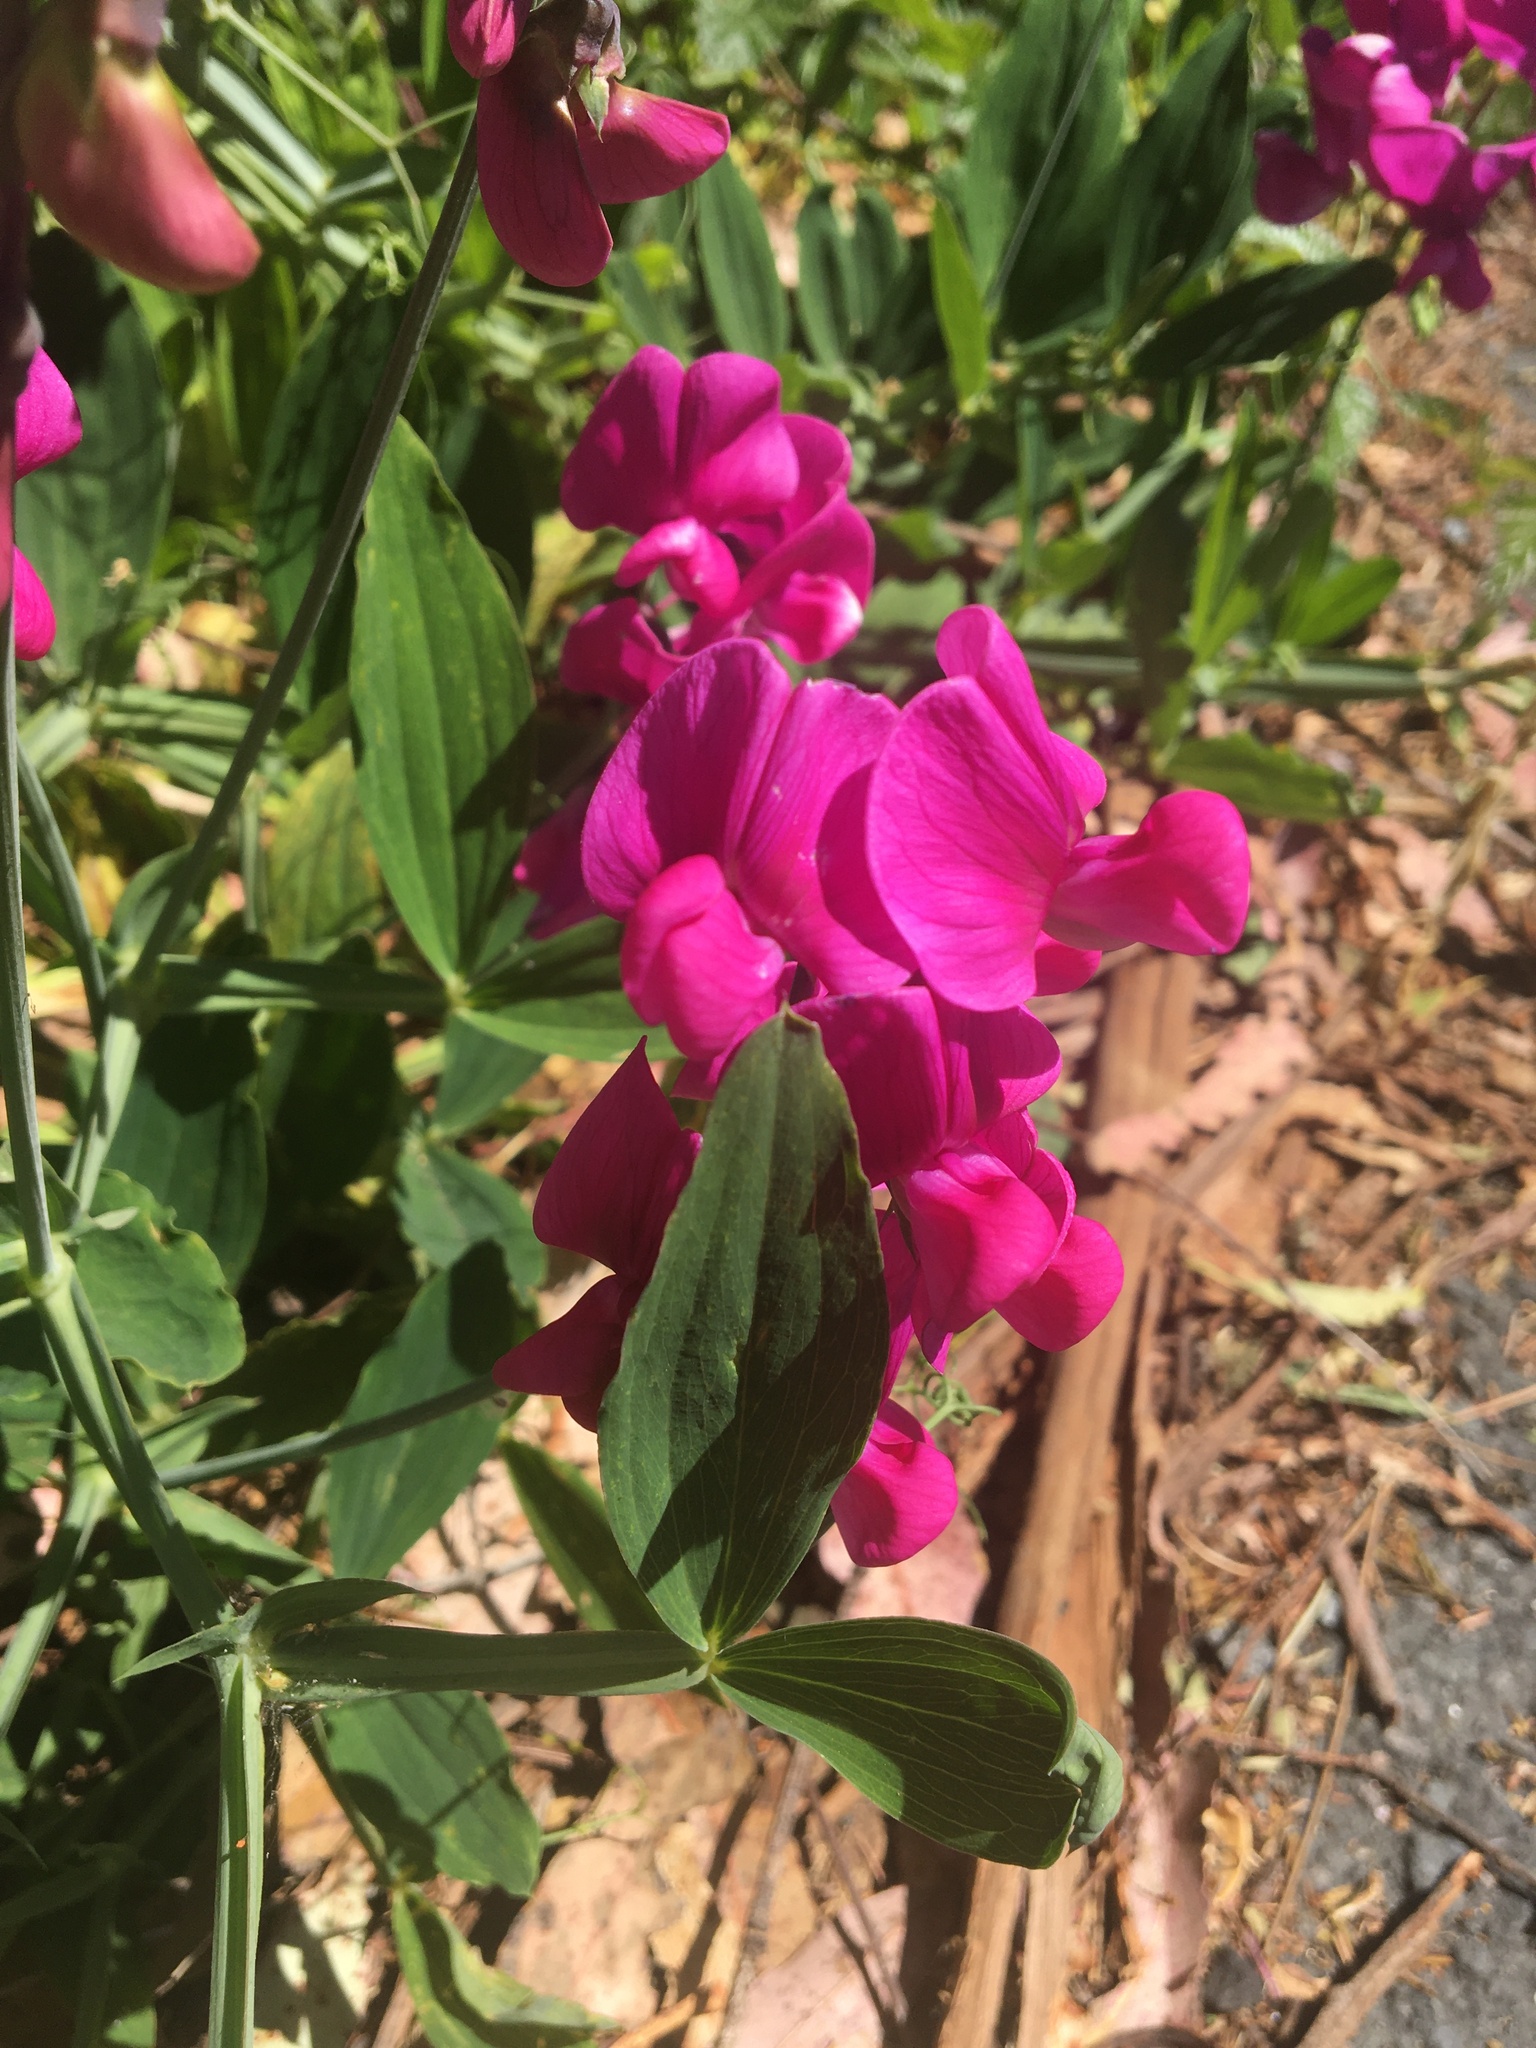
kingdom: Plantae
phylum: Tracheophyta
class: Magnoliopsida
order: Fabales
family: Fabaceae
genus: Lathyrus
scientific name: Lathyrus latifolius
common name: Perennial pea
